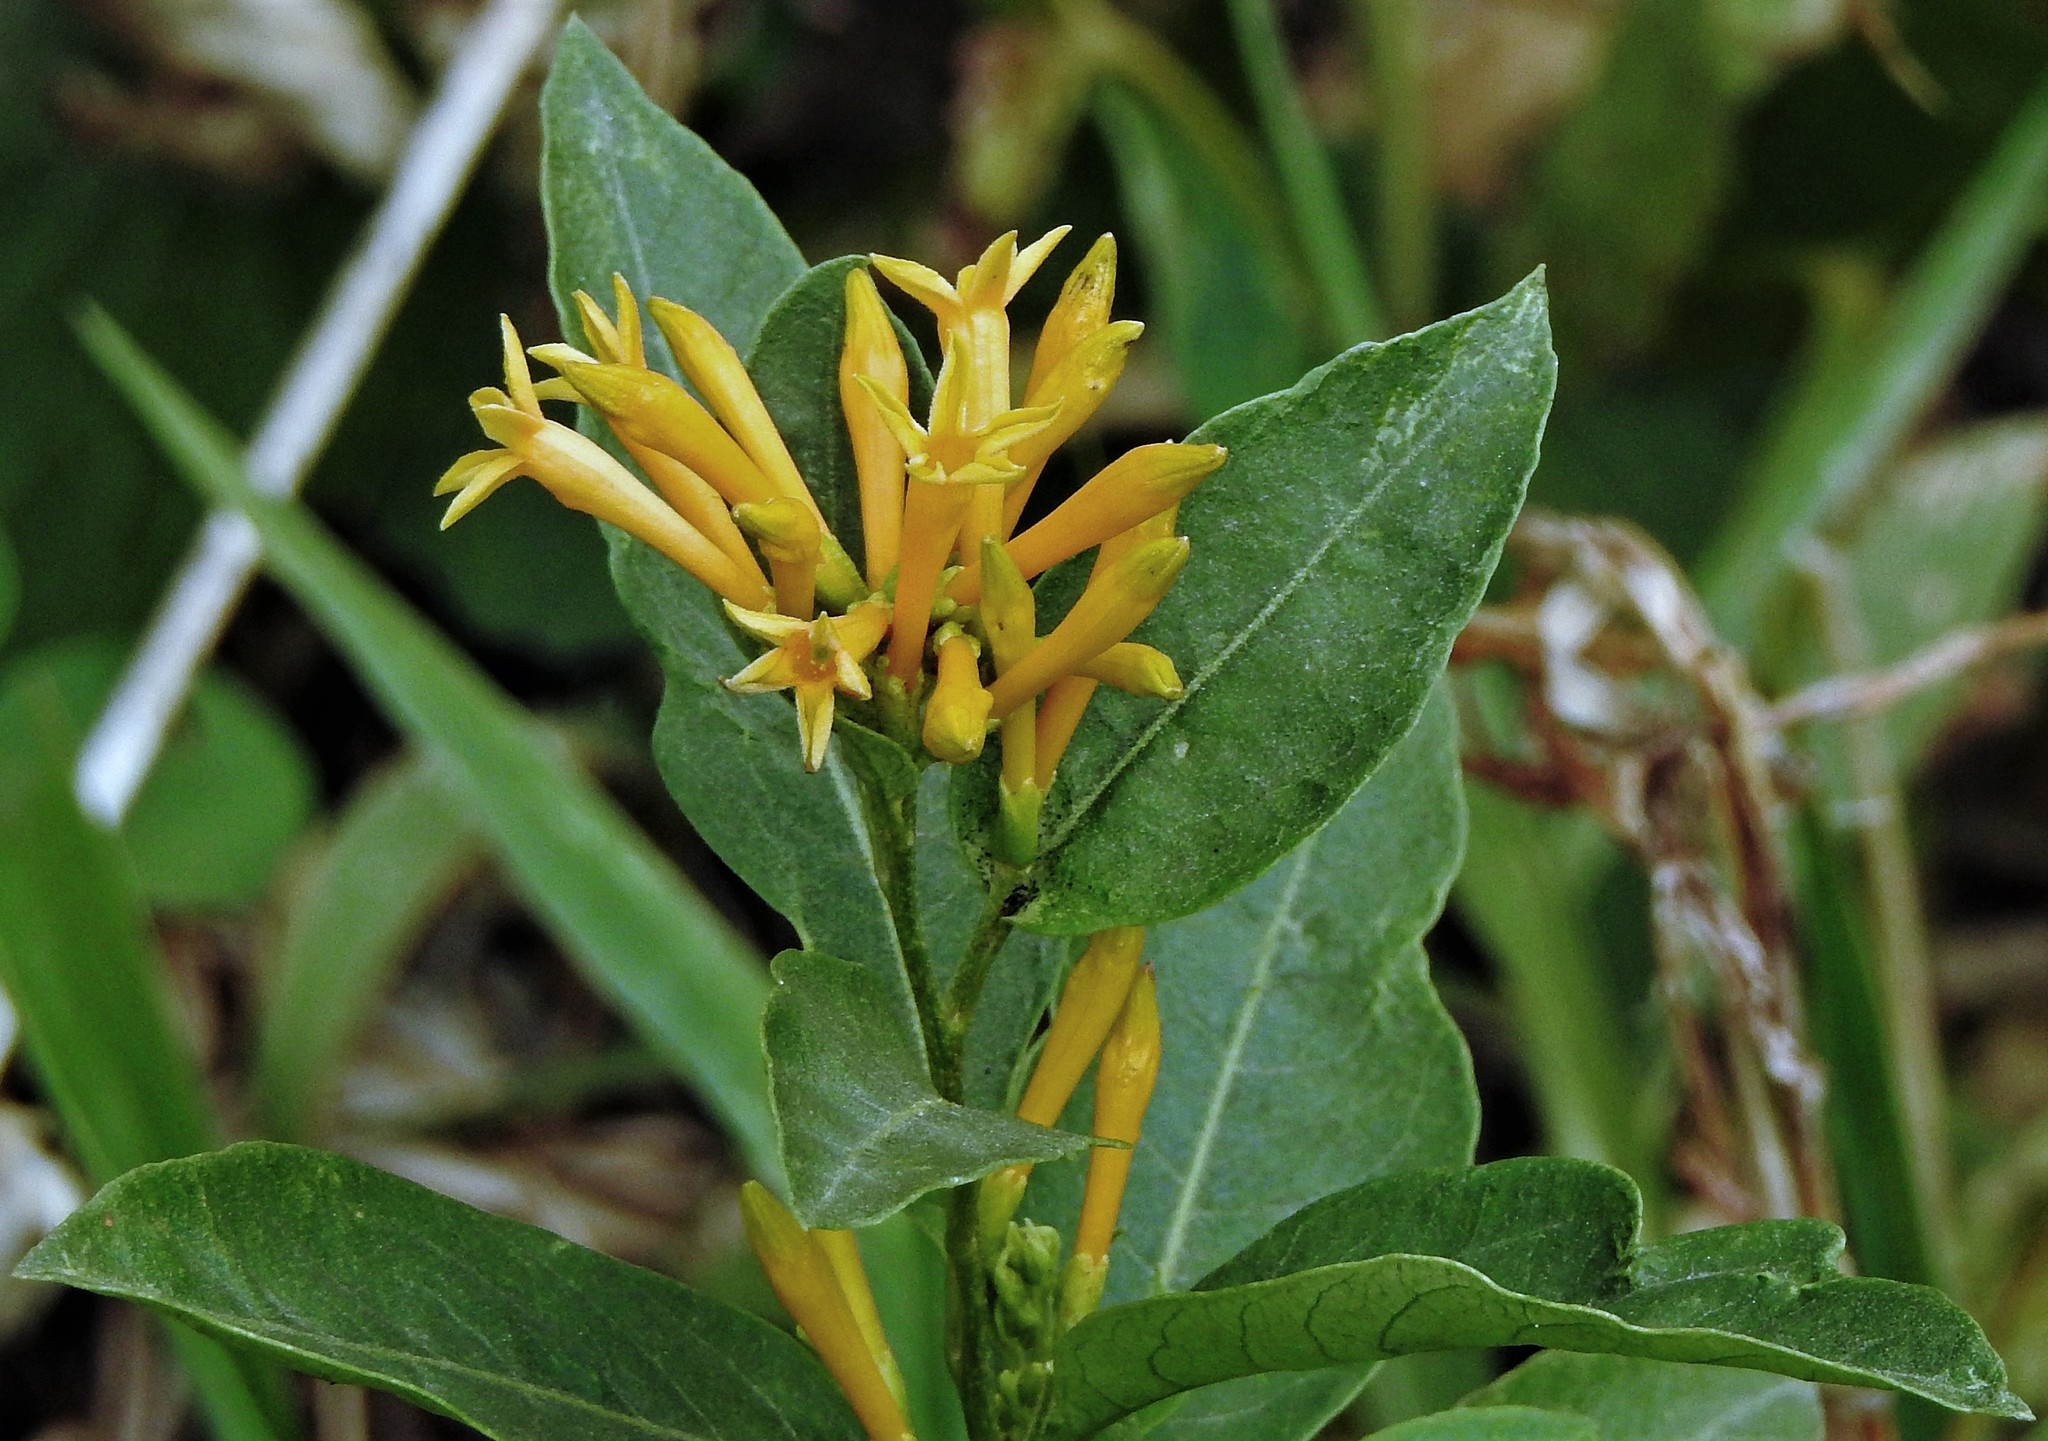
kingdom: Plantae
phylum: Tracheophyta
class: Magnoliopsida
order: Solanales
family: Solanaceae
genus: Cestrum
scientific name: Cestrum parqui
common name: Chilean cestrum
